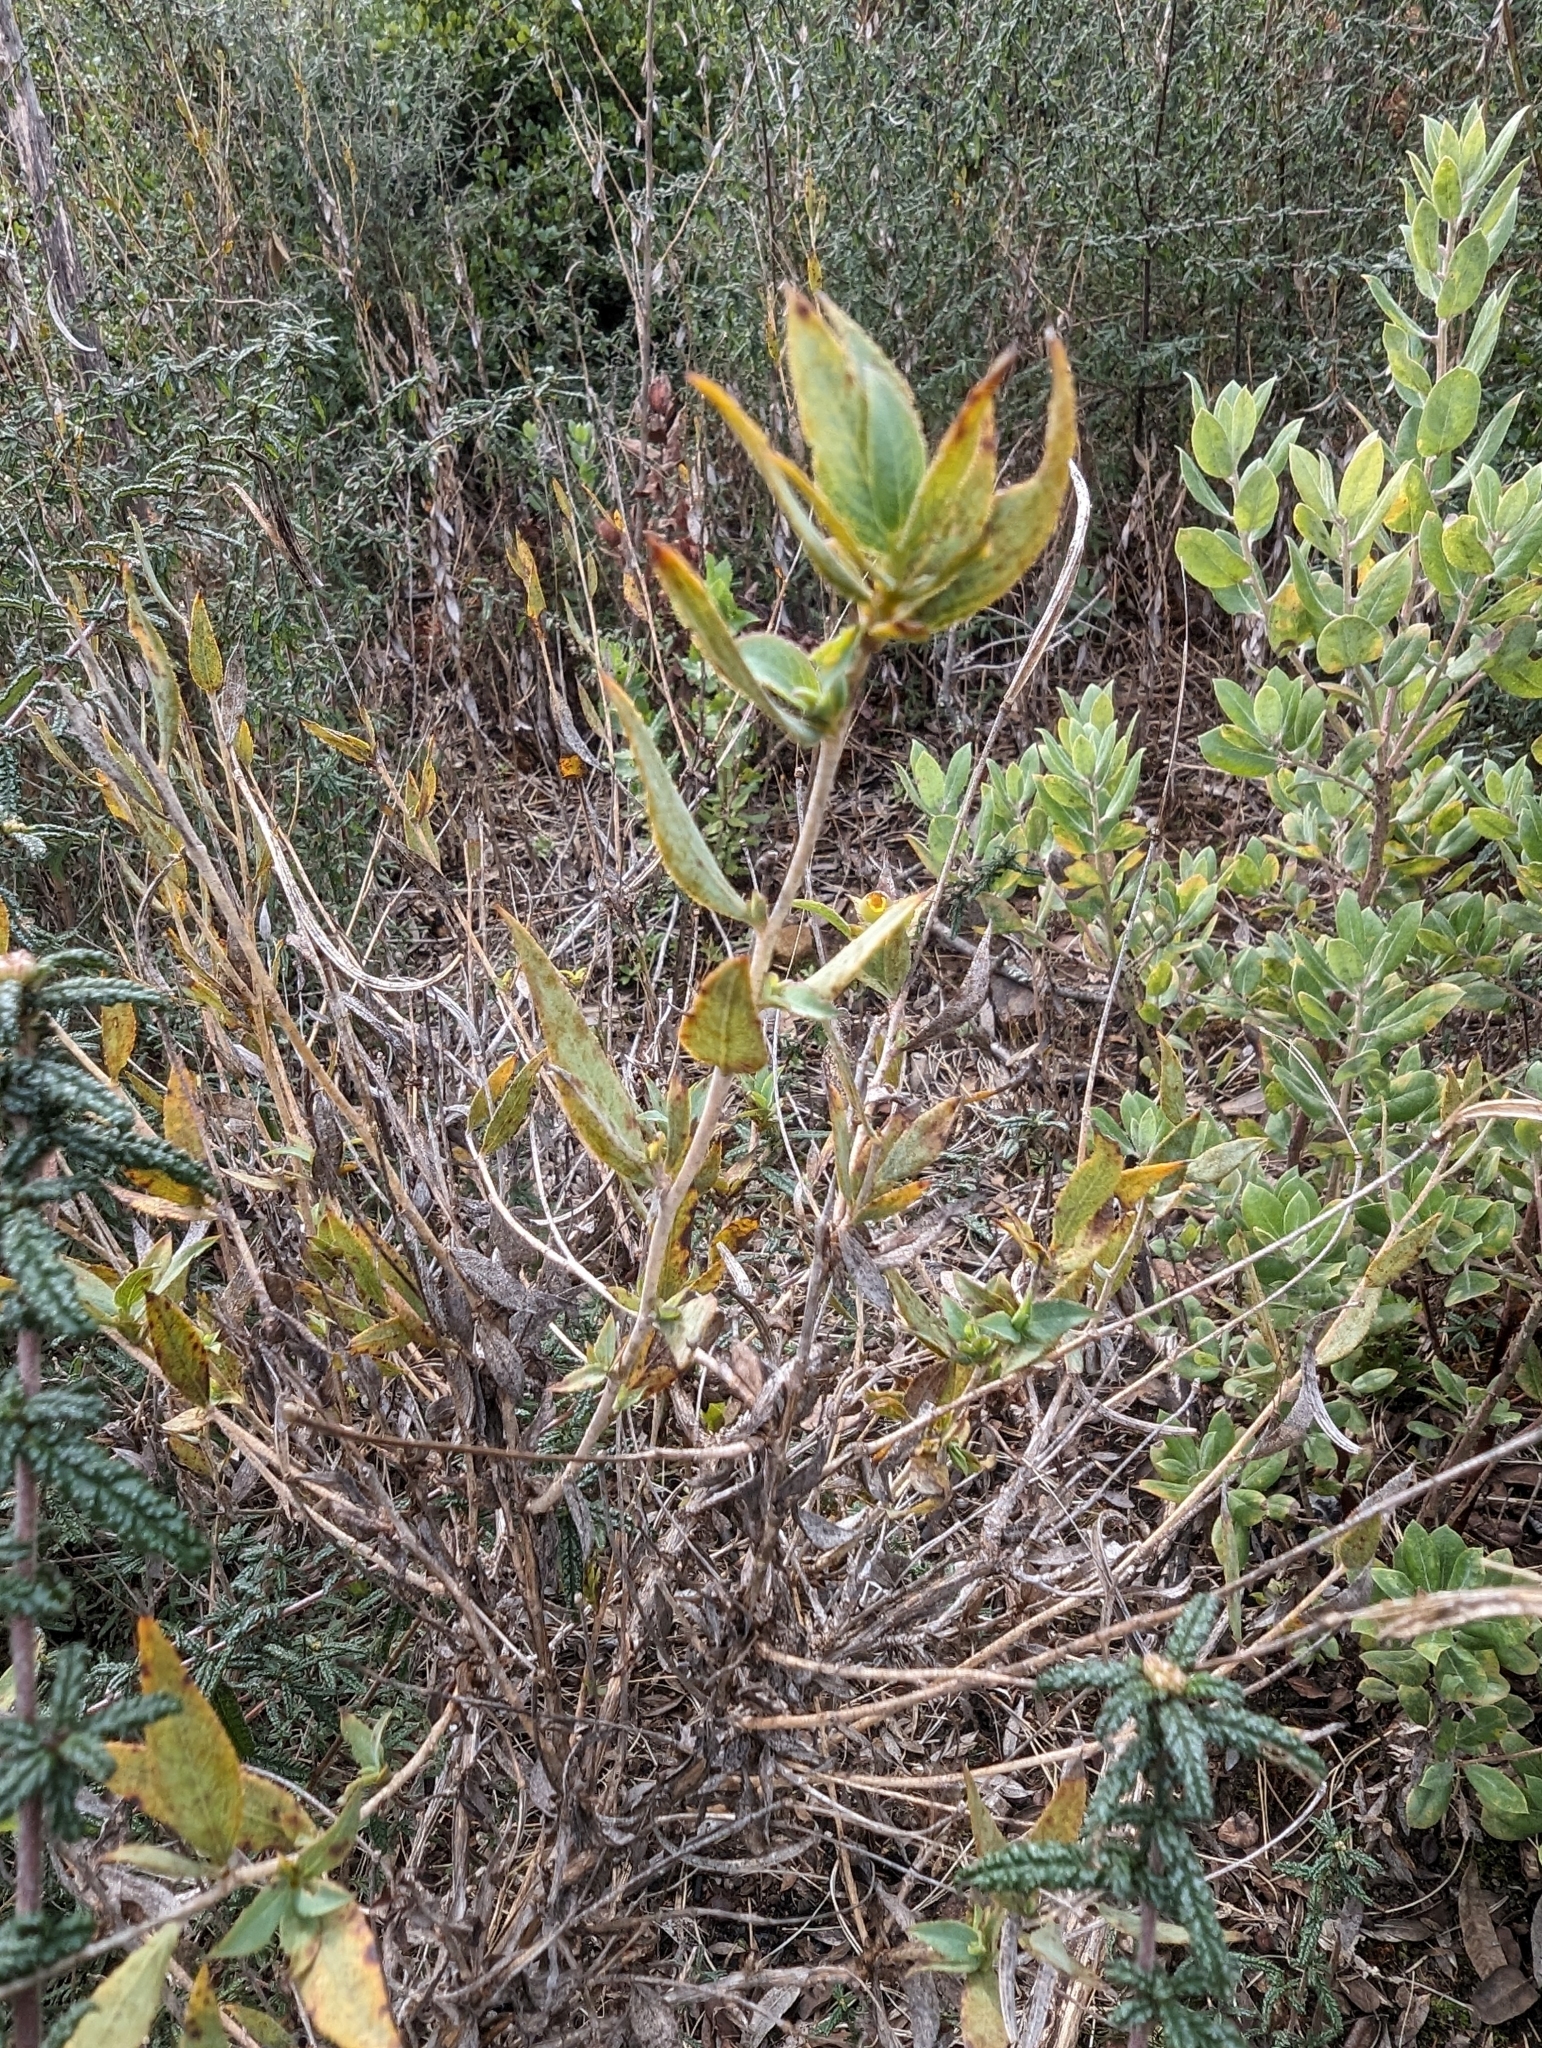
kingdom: Plantae
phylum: Tracheophyta
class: Magnoliopsida
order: Ranunculales
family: Papaveraceae
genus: Dendromecon
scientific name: Dendromecon rigida
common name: Tree poppy
